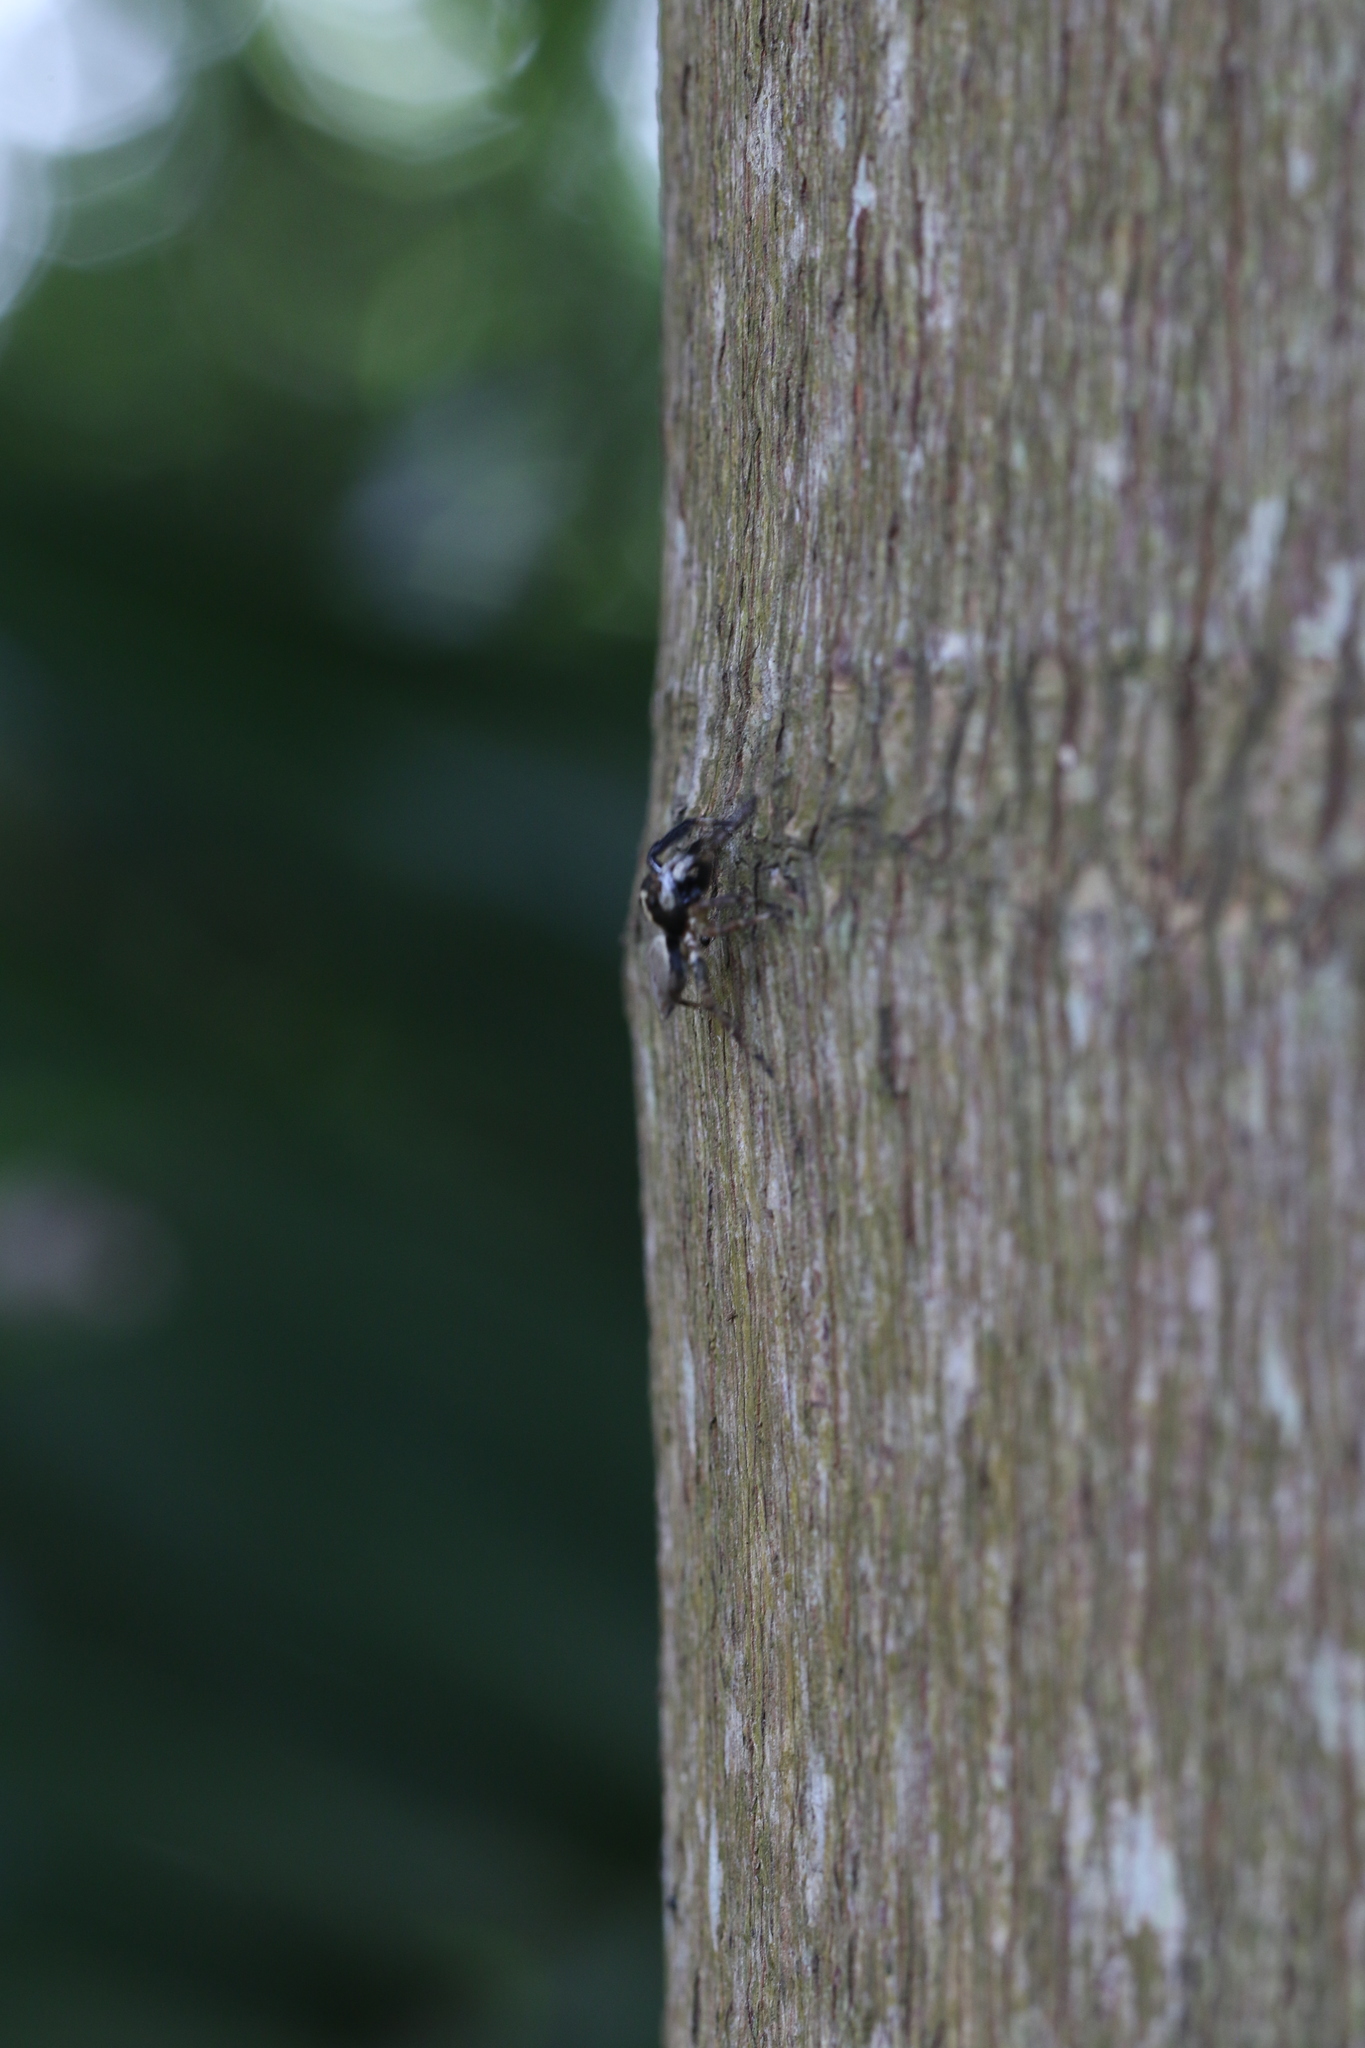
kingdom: Animalia
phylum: Arthropoda
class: Arachnida
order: Araneae
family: Salticidae
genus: Asaphobelis
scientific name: Asaphobelis physonychus
